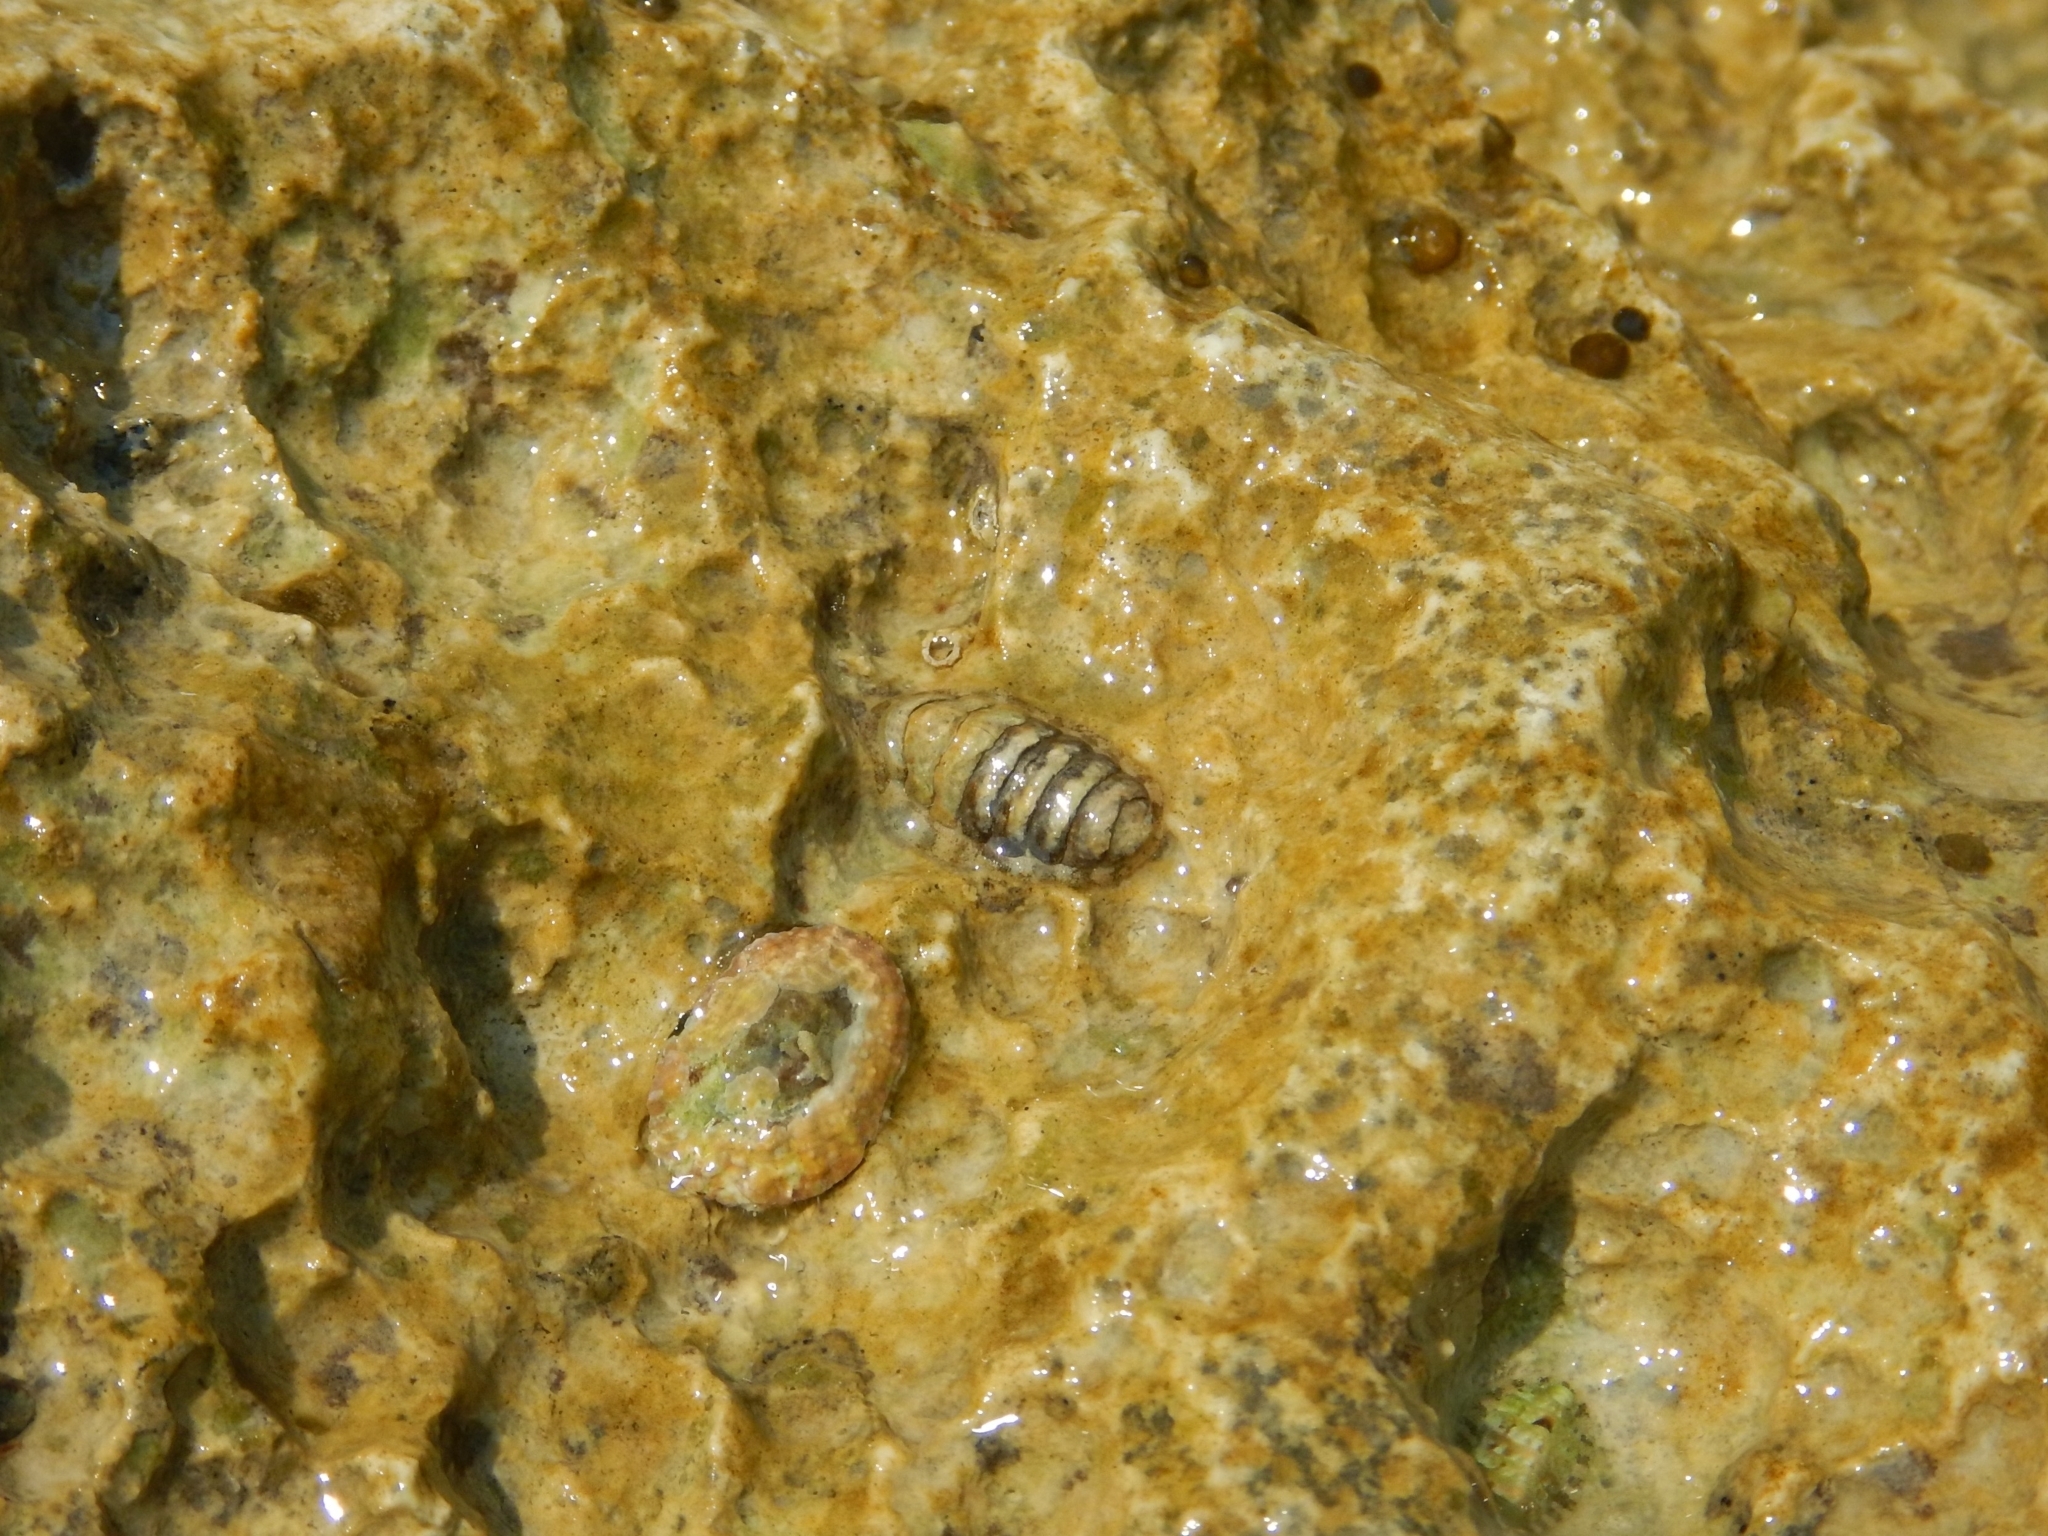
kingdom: Animalia
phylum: Mollusca
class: Polyplacophora
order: Chitonida
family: Tonicellidae
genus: Lepidochitona
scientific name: Lepidochitona caprearum
